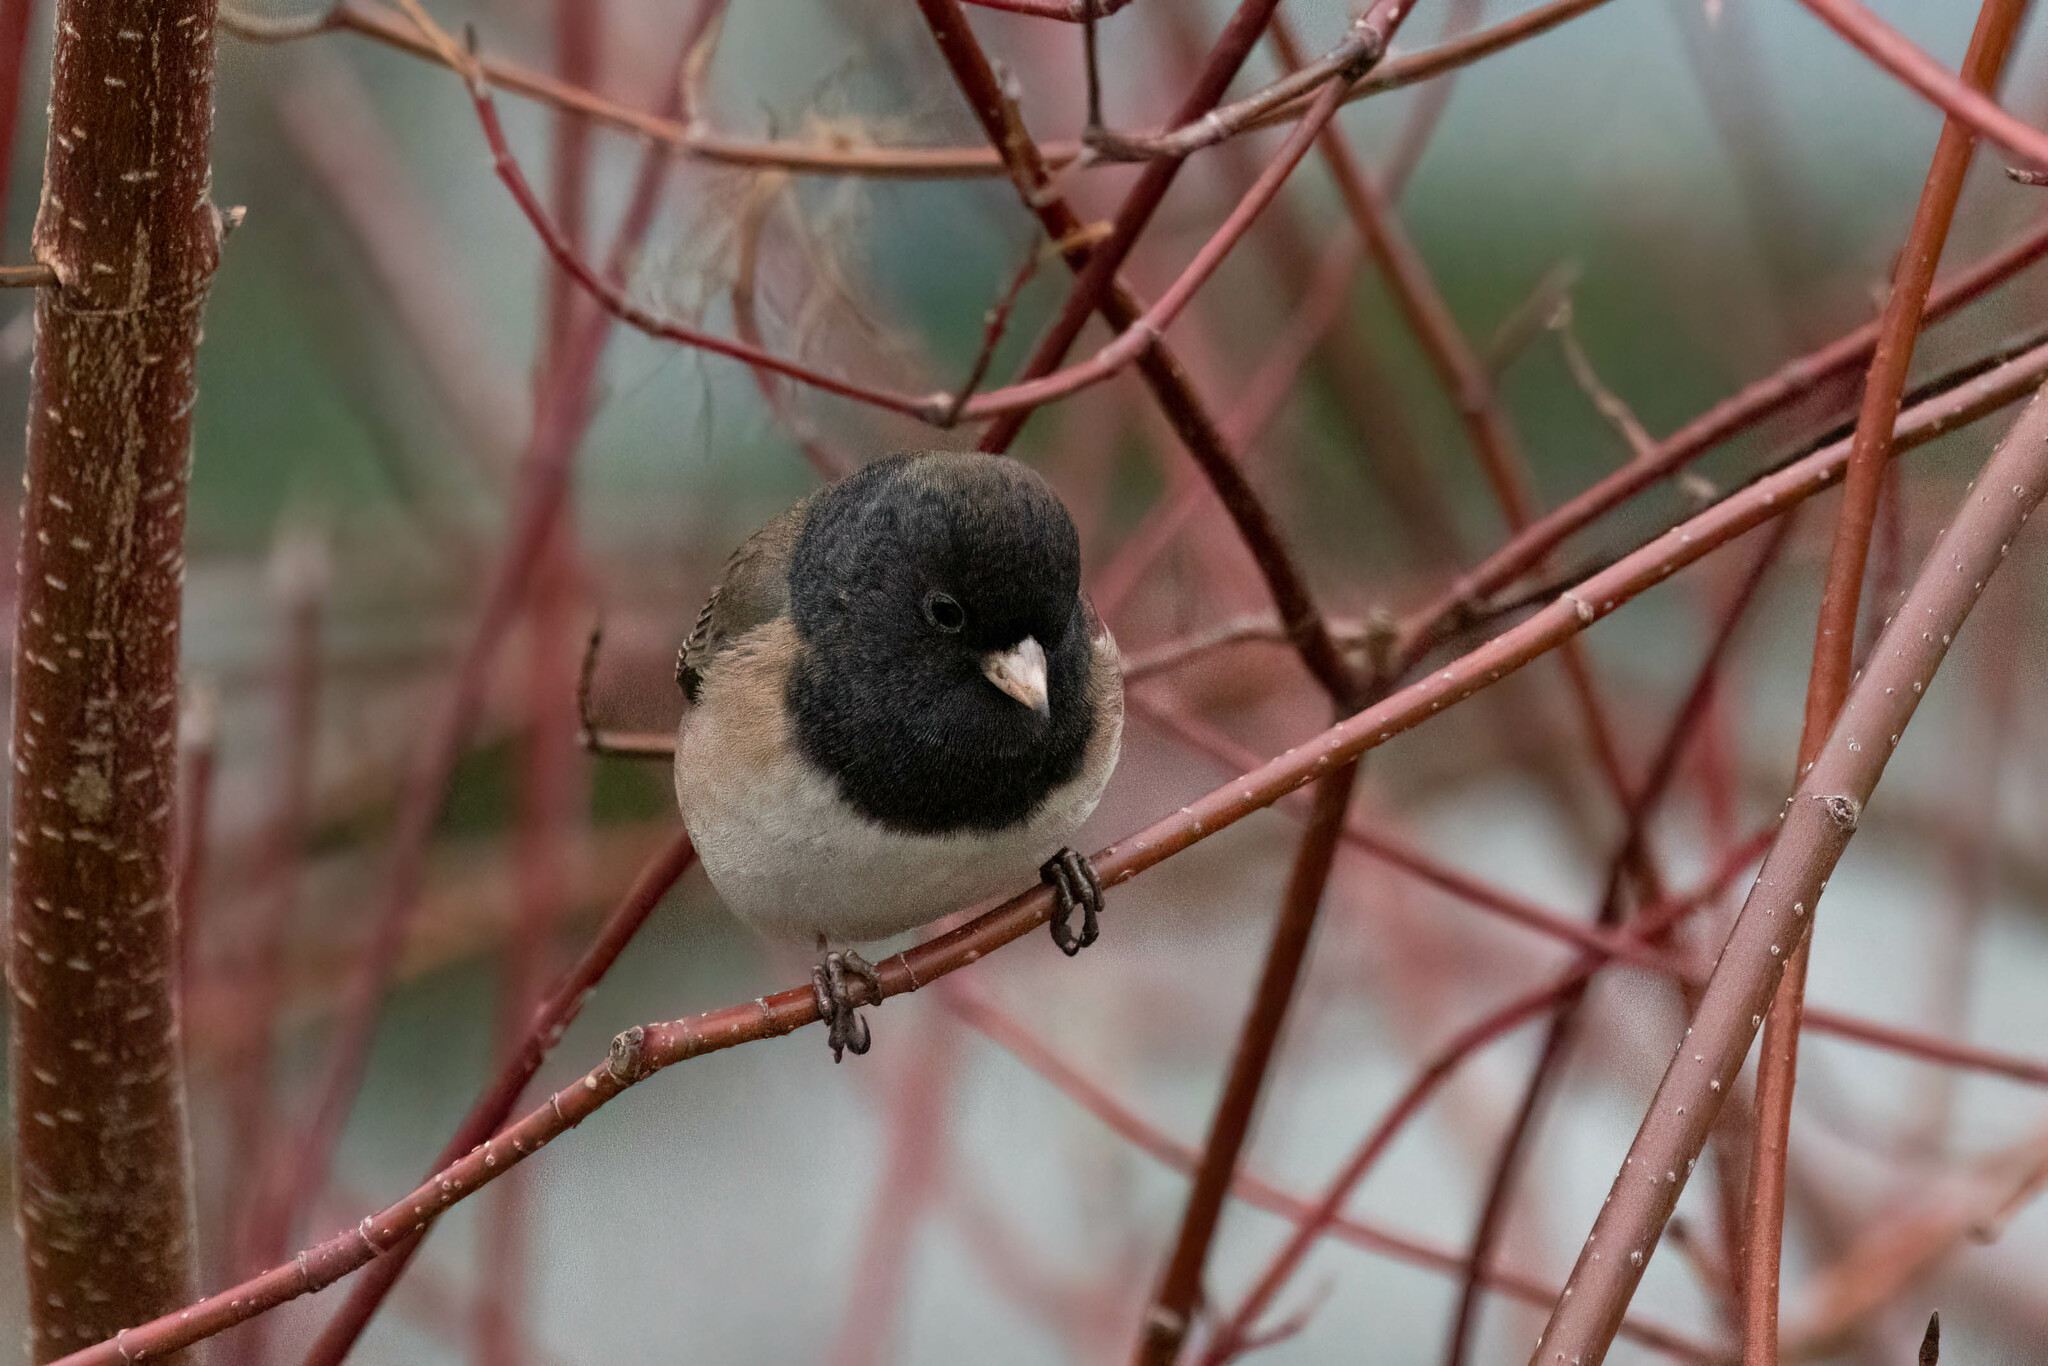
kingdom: Animalia
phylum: Chordata
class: Aves
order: Passeriformes
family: Passerellidae
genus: Junco
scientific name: Junco hyemalis
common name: Dark-eyed junco
